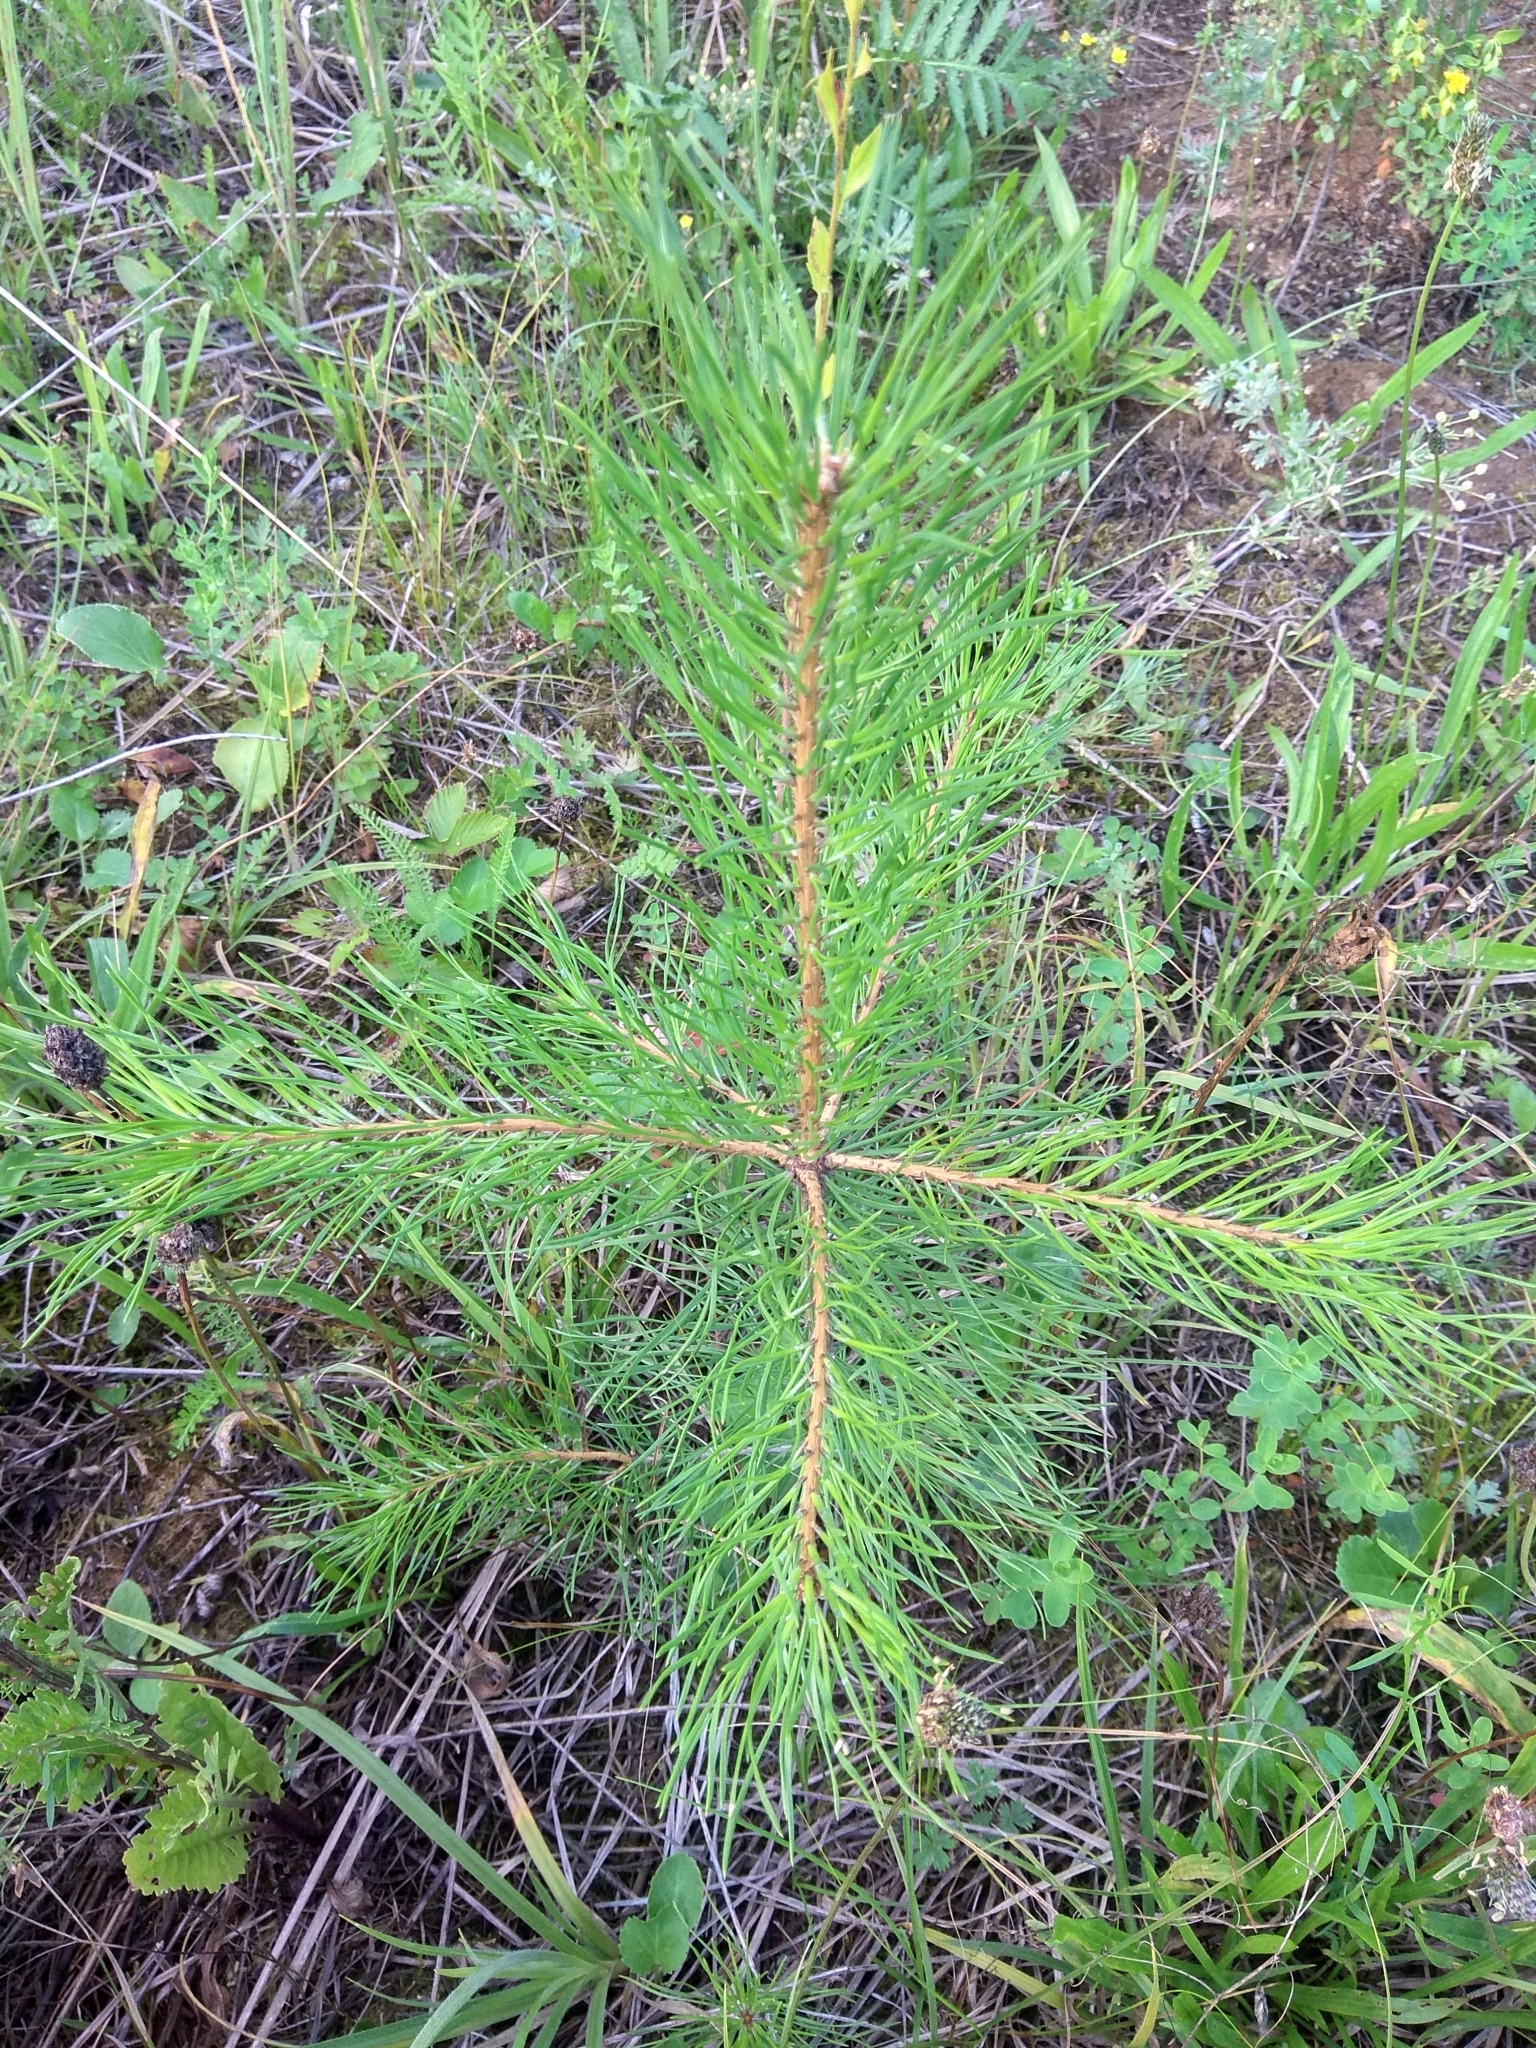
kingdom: Plantae
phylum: Tracheophyta
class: Pinopsida
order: Pinales
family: Pinaceae
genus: Pinus
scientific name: Pinus sylvestris
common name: Scots pine
